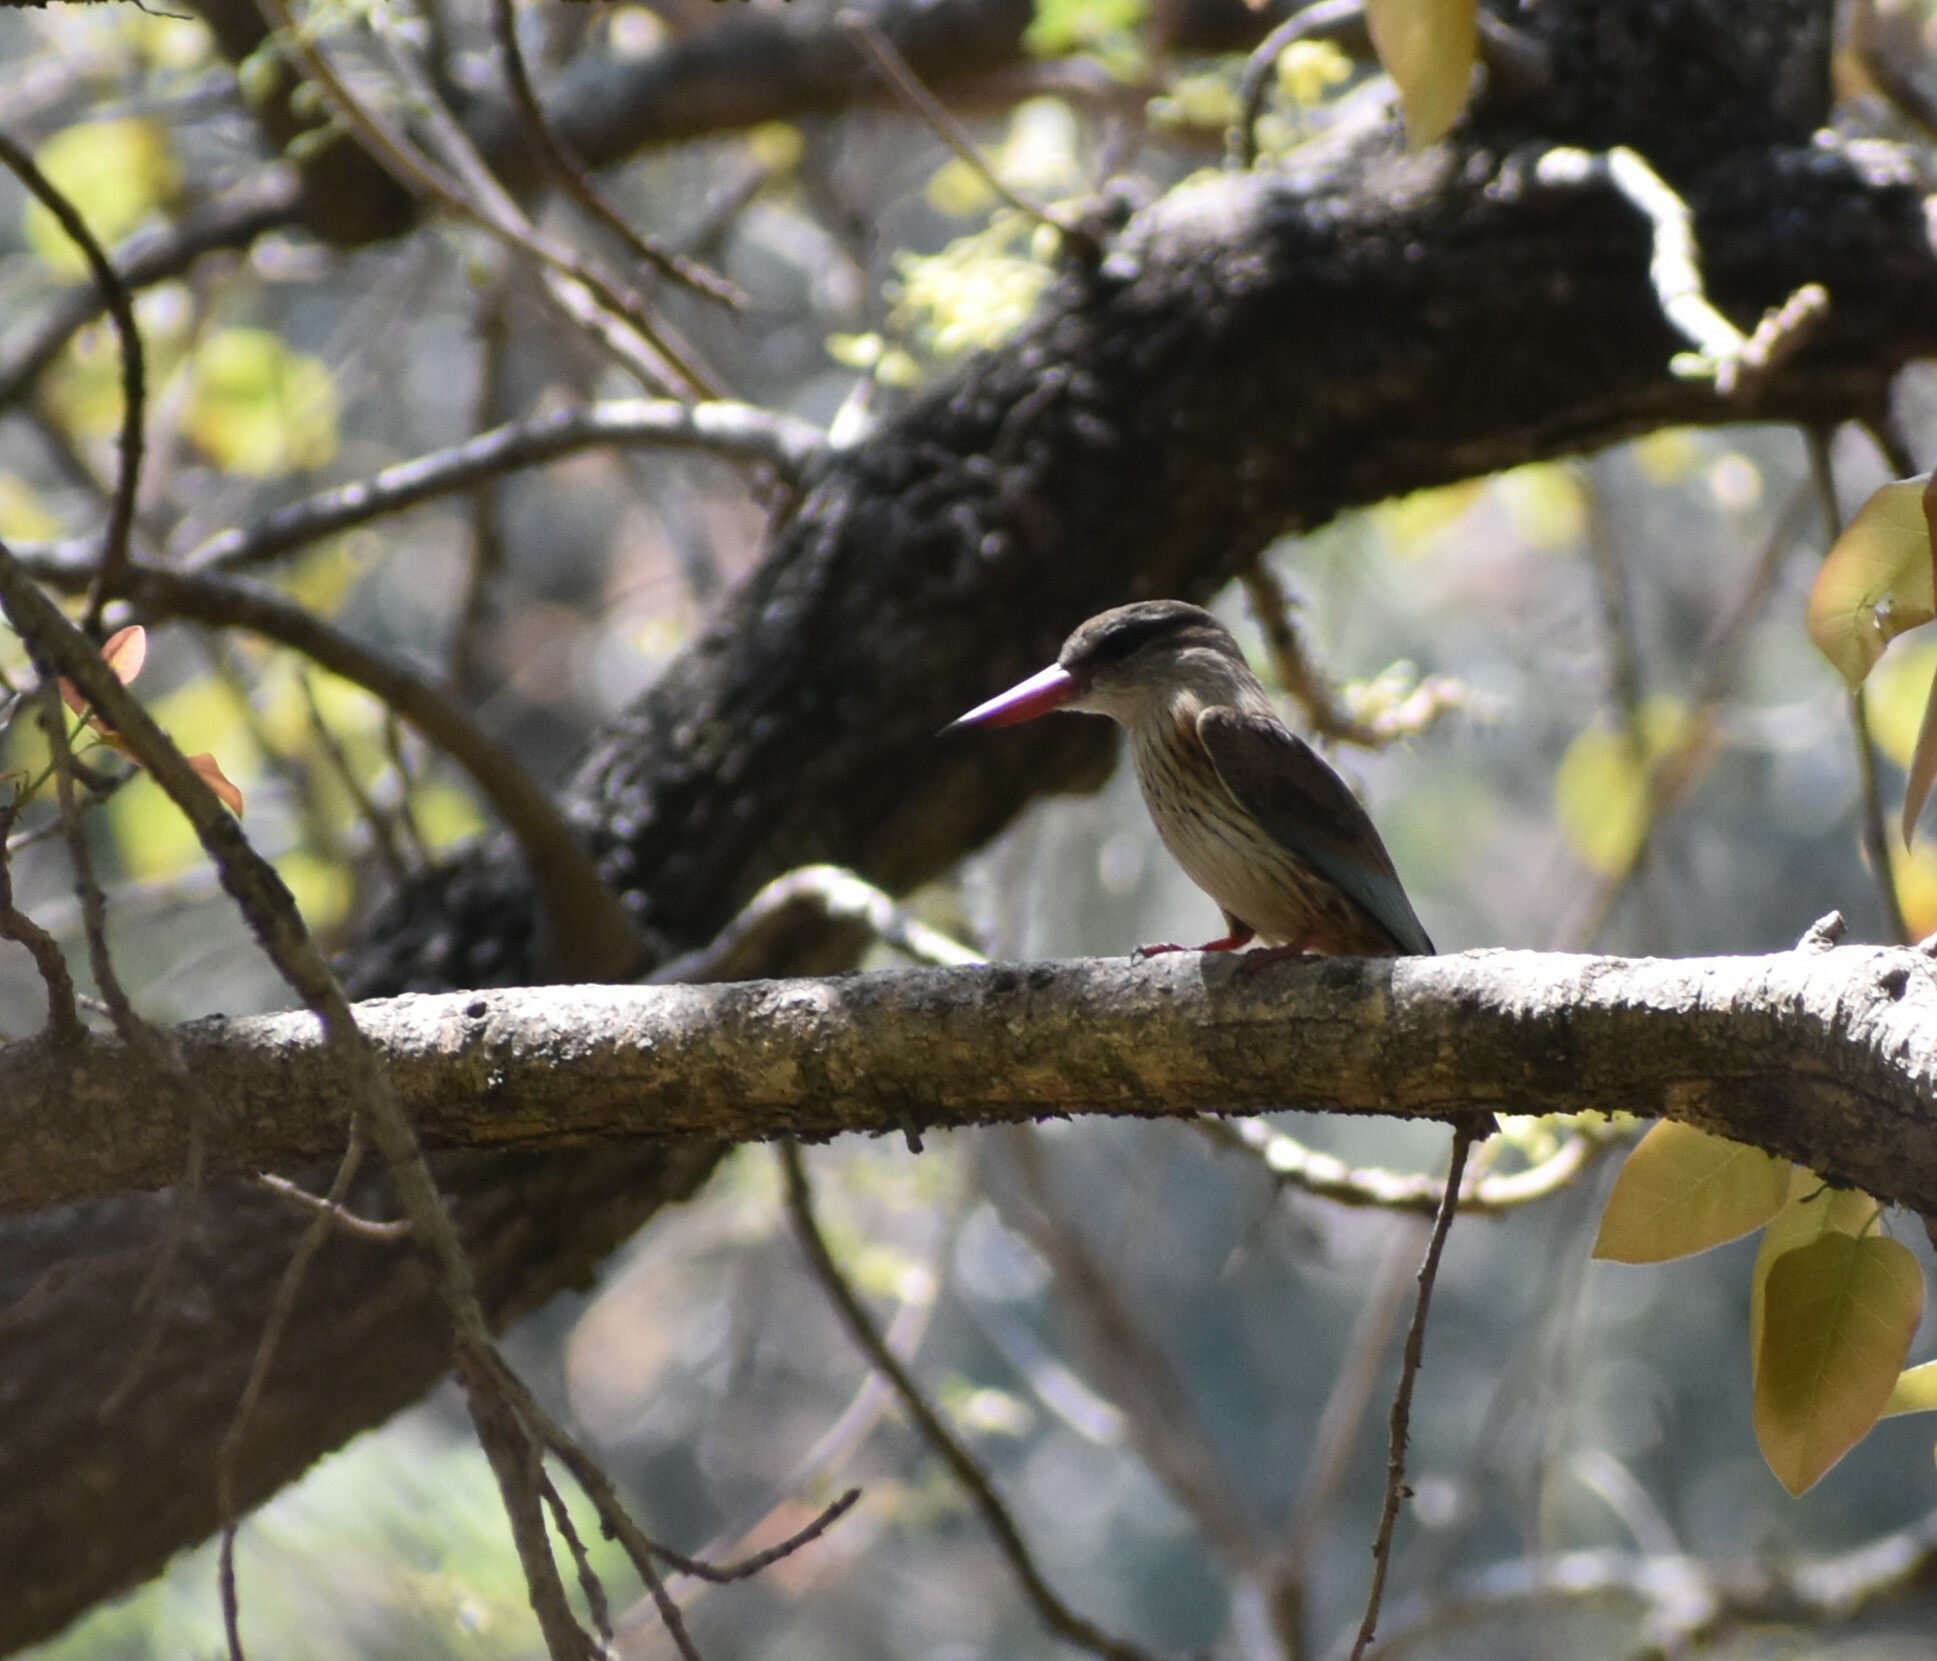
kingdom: Animalia
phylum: Chordata
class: Aves
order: Coraciiformes
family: Alcedinidae
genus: Halcyon
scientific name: Halcyon albiventris
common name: Brown-hooded kingfisher
